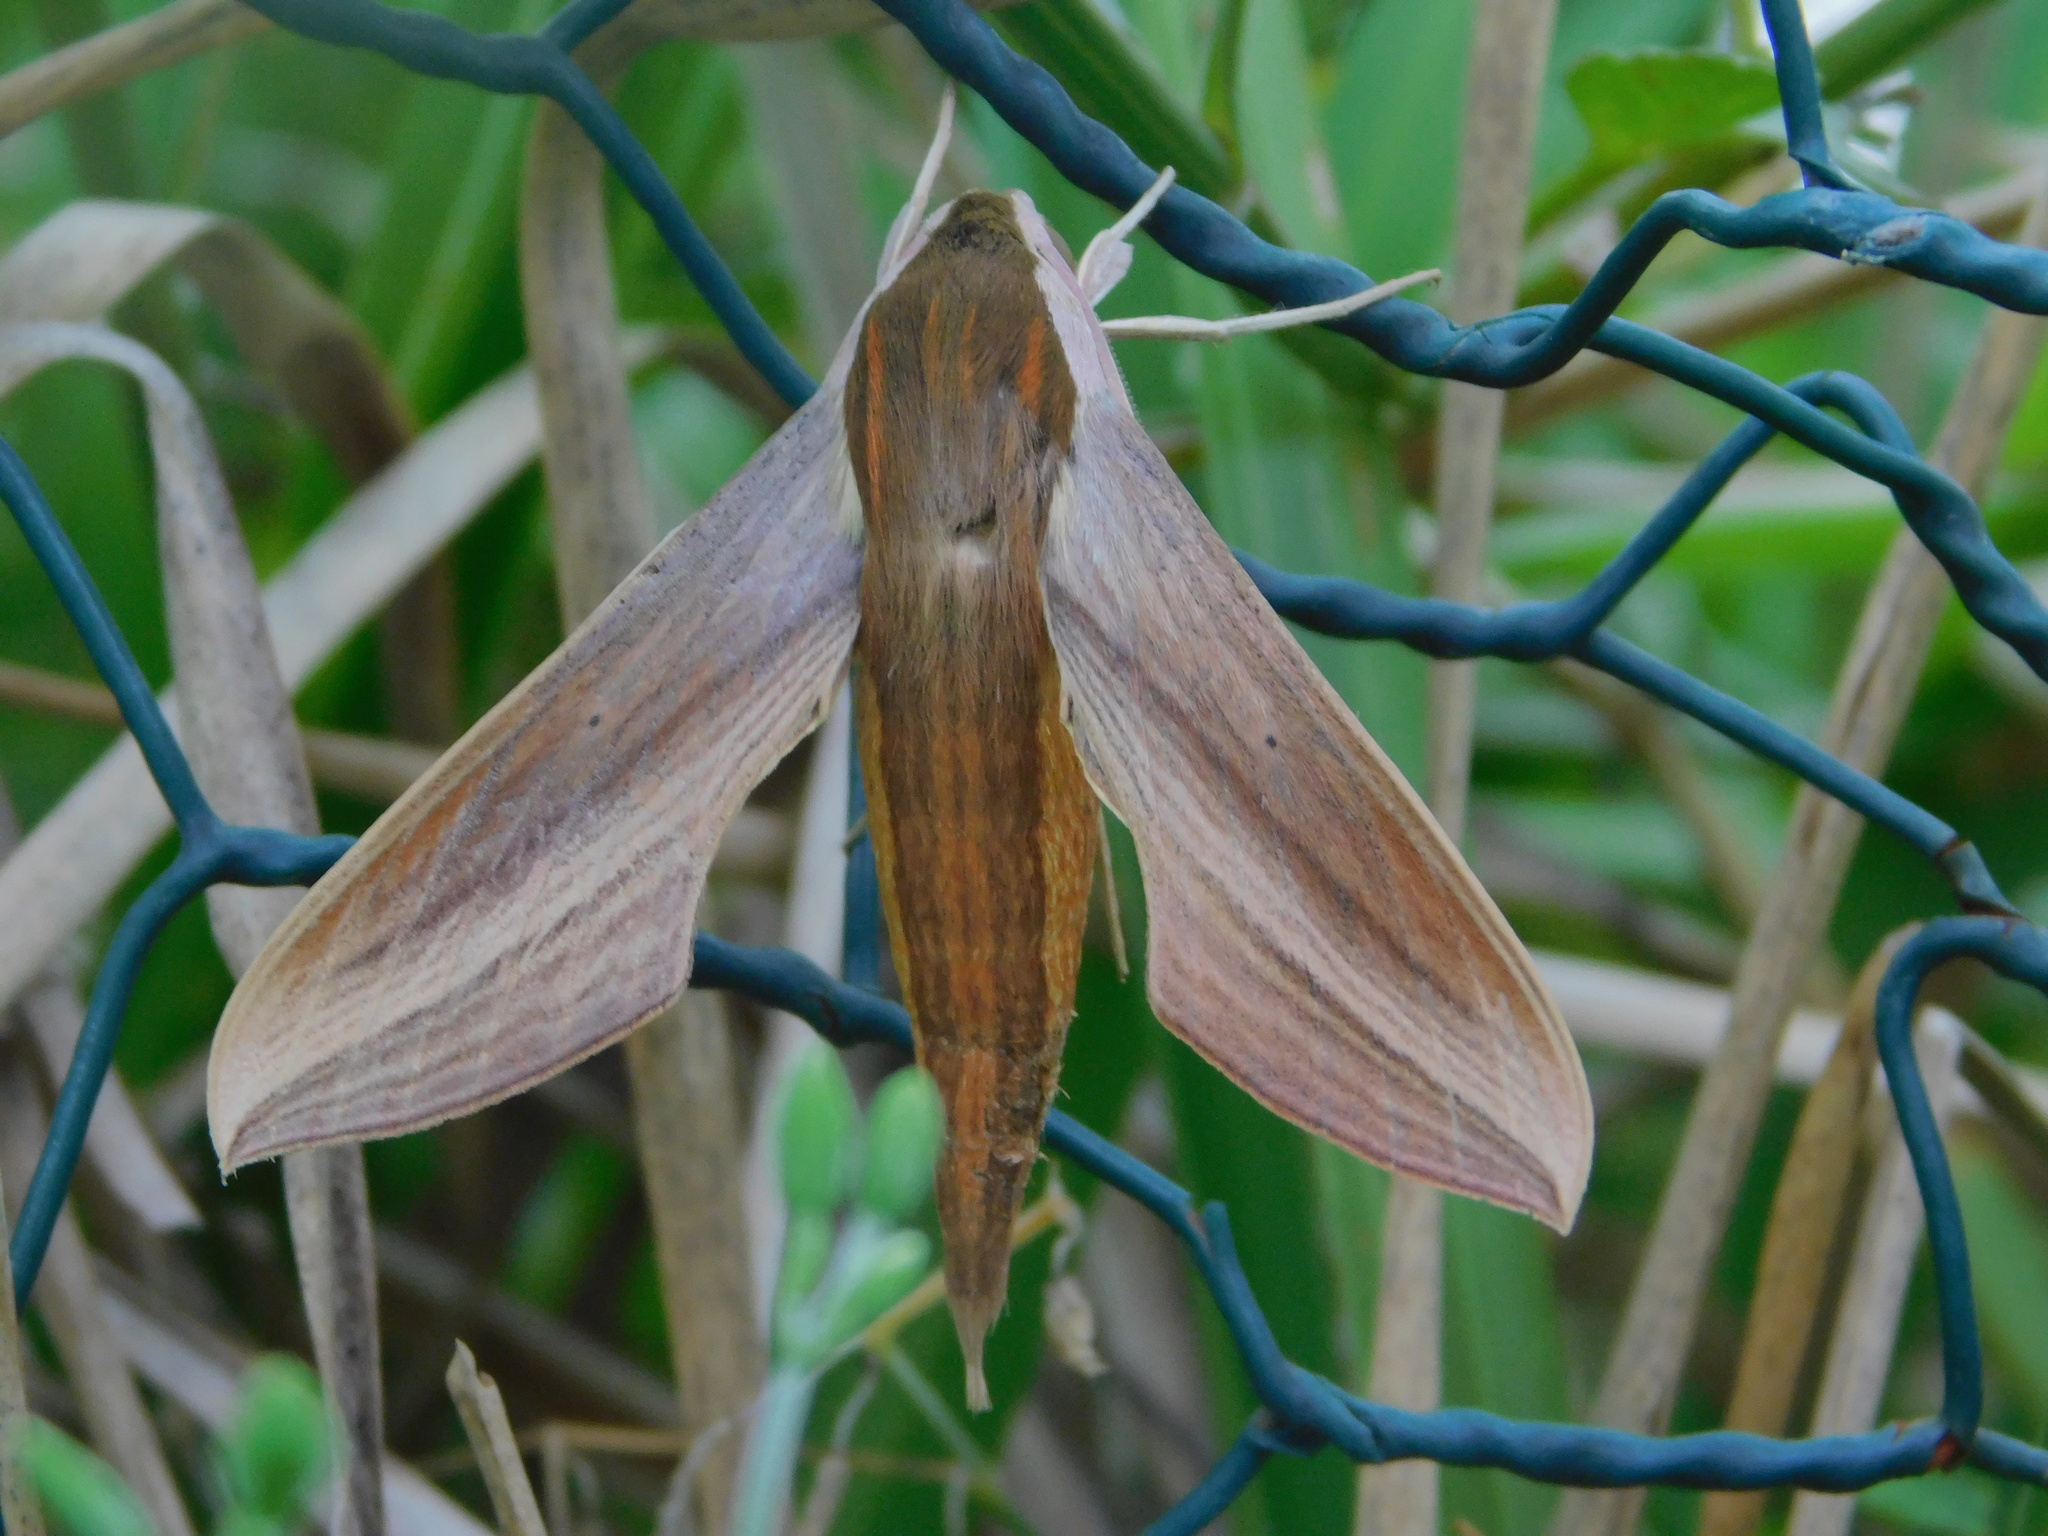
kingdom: Animalia
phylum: Arthropoda
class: Insecta
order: Lepidoptera
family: Sphingidae
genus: Xylophanes
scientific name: Xylophanes tersa
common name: Tersa sphinx
